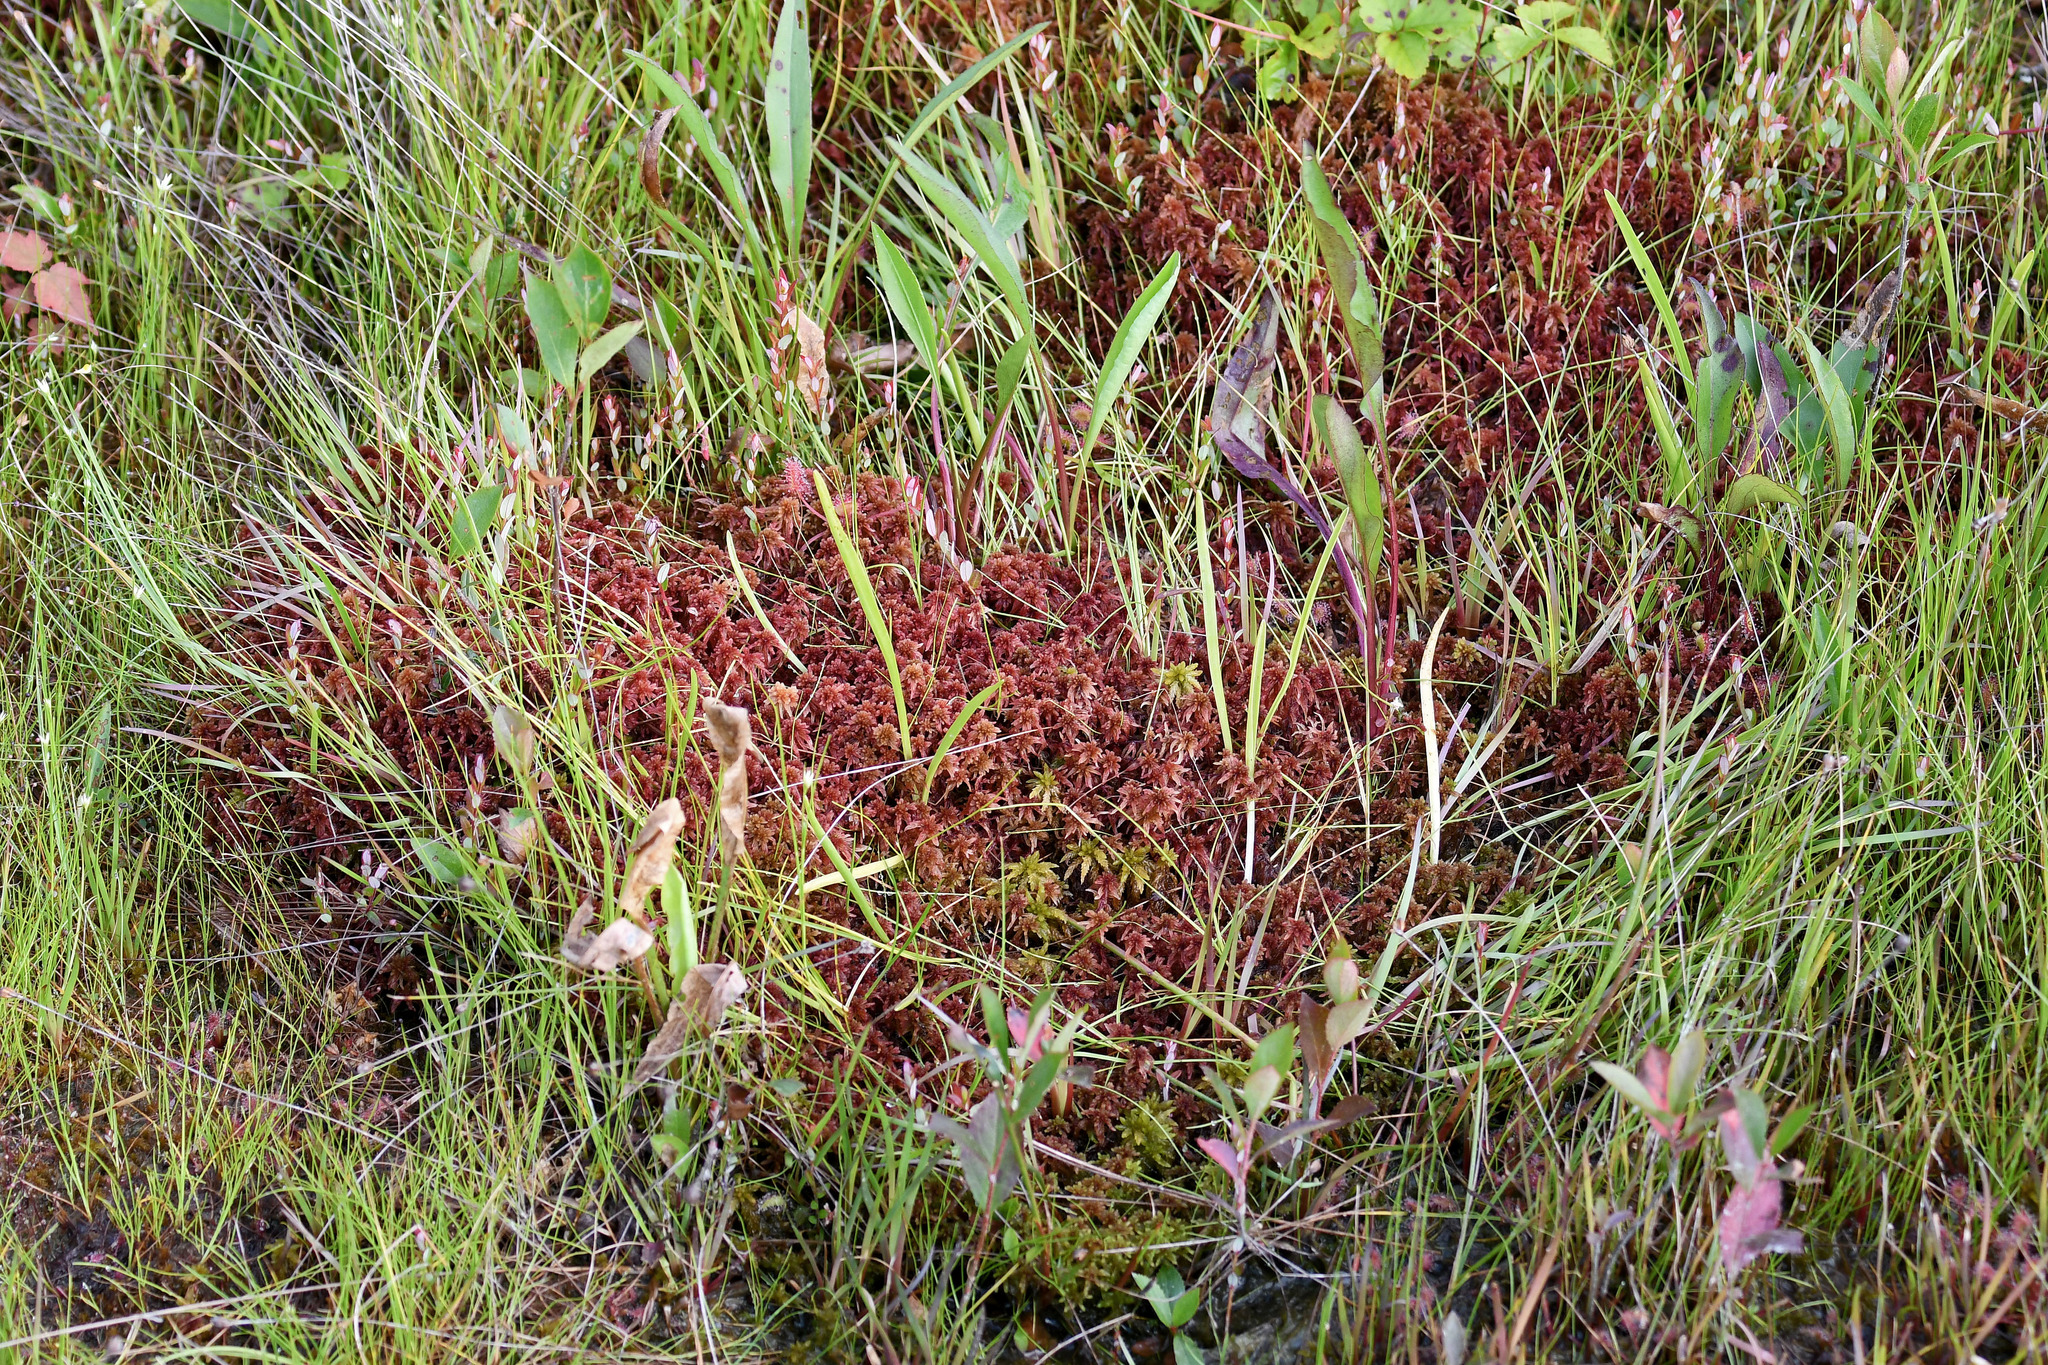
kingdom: Plantae
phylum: Tracheophyta
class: Magnoliopsida
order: Caryophyllales
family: Droseraceae
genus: Drosera
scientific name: Drosera rotundifolia
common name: Round-leaved sundew
